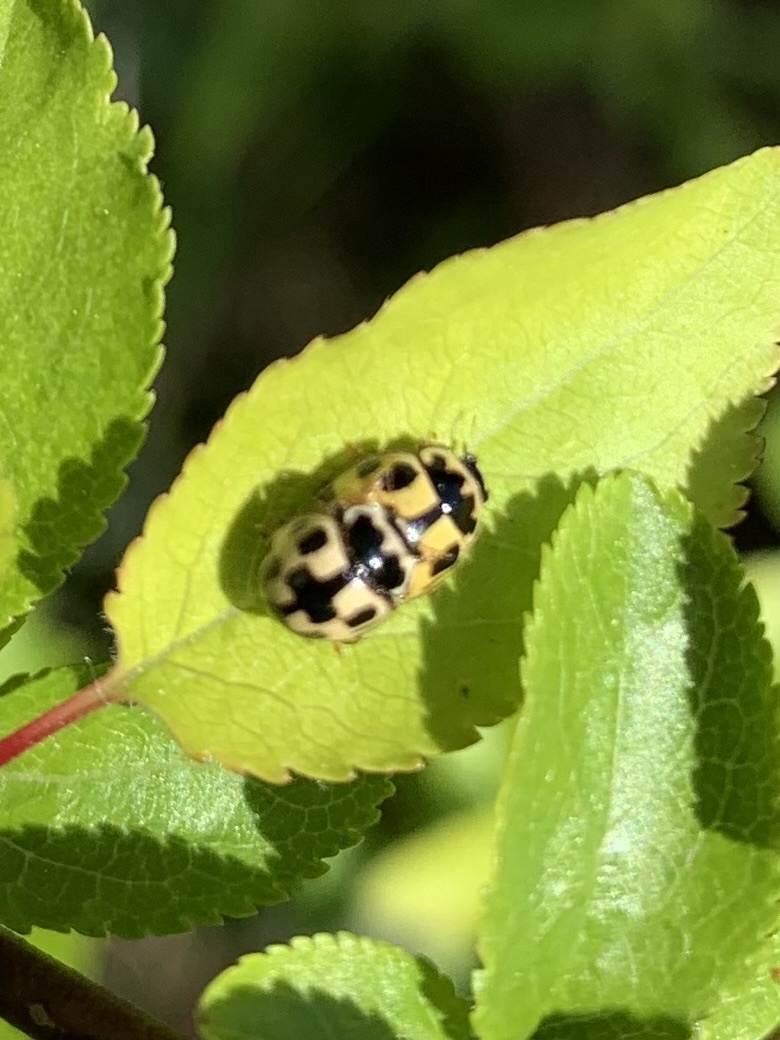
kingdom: Animalia
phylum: Arthropoda
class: Insecta
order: Coleoptera
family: Coccinellidae
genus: Propylaea
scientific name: Propylaea quatuordecimpunctata
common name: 14-spotted ladybird beetle
